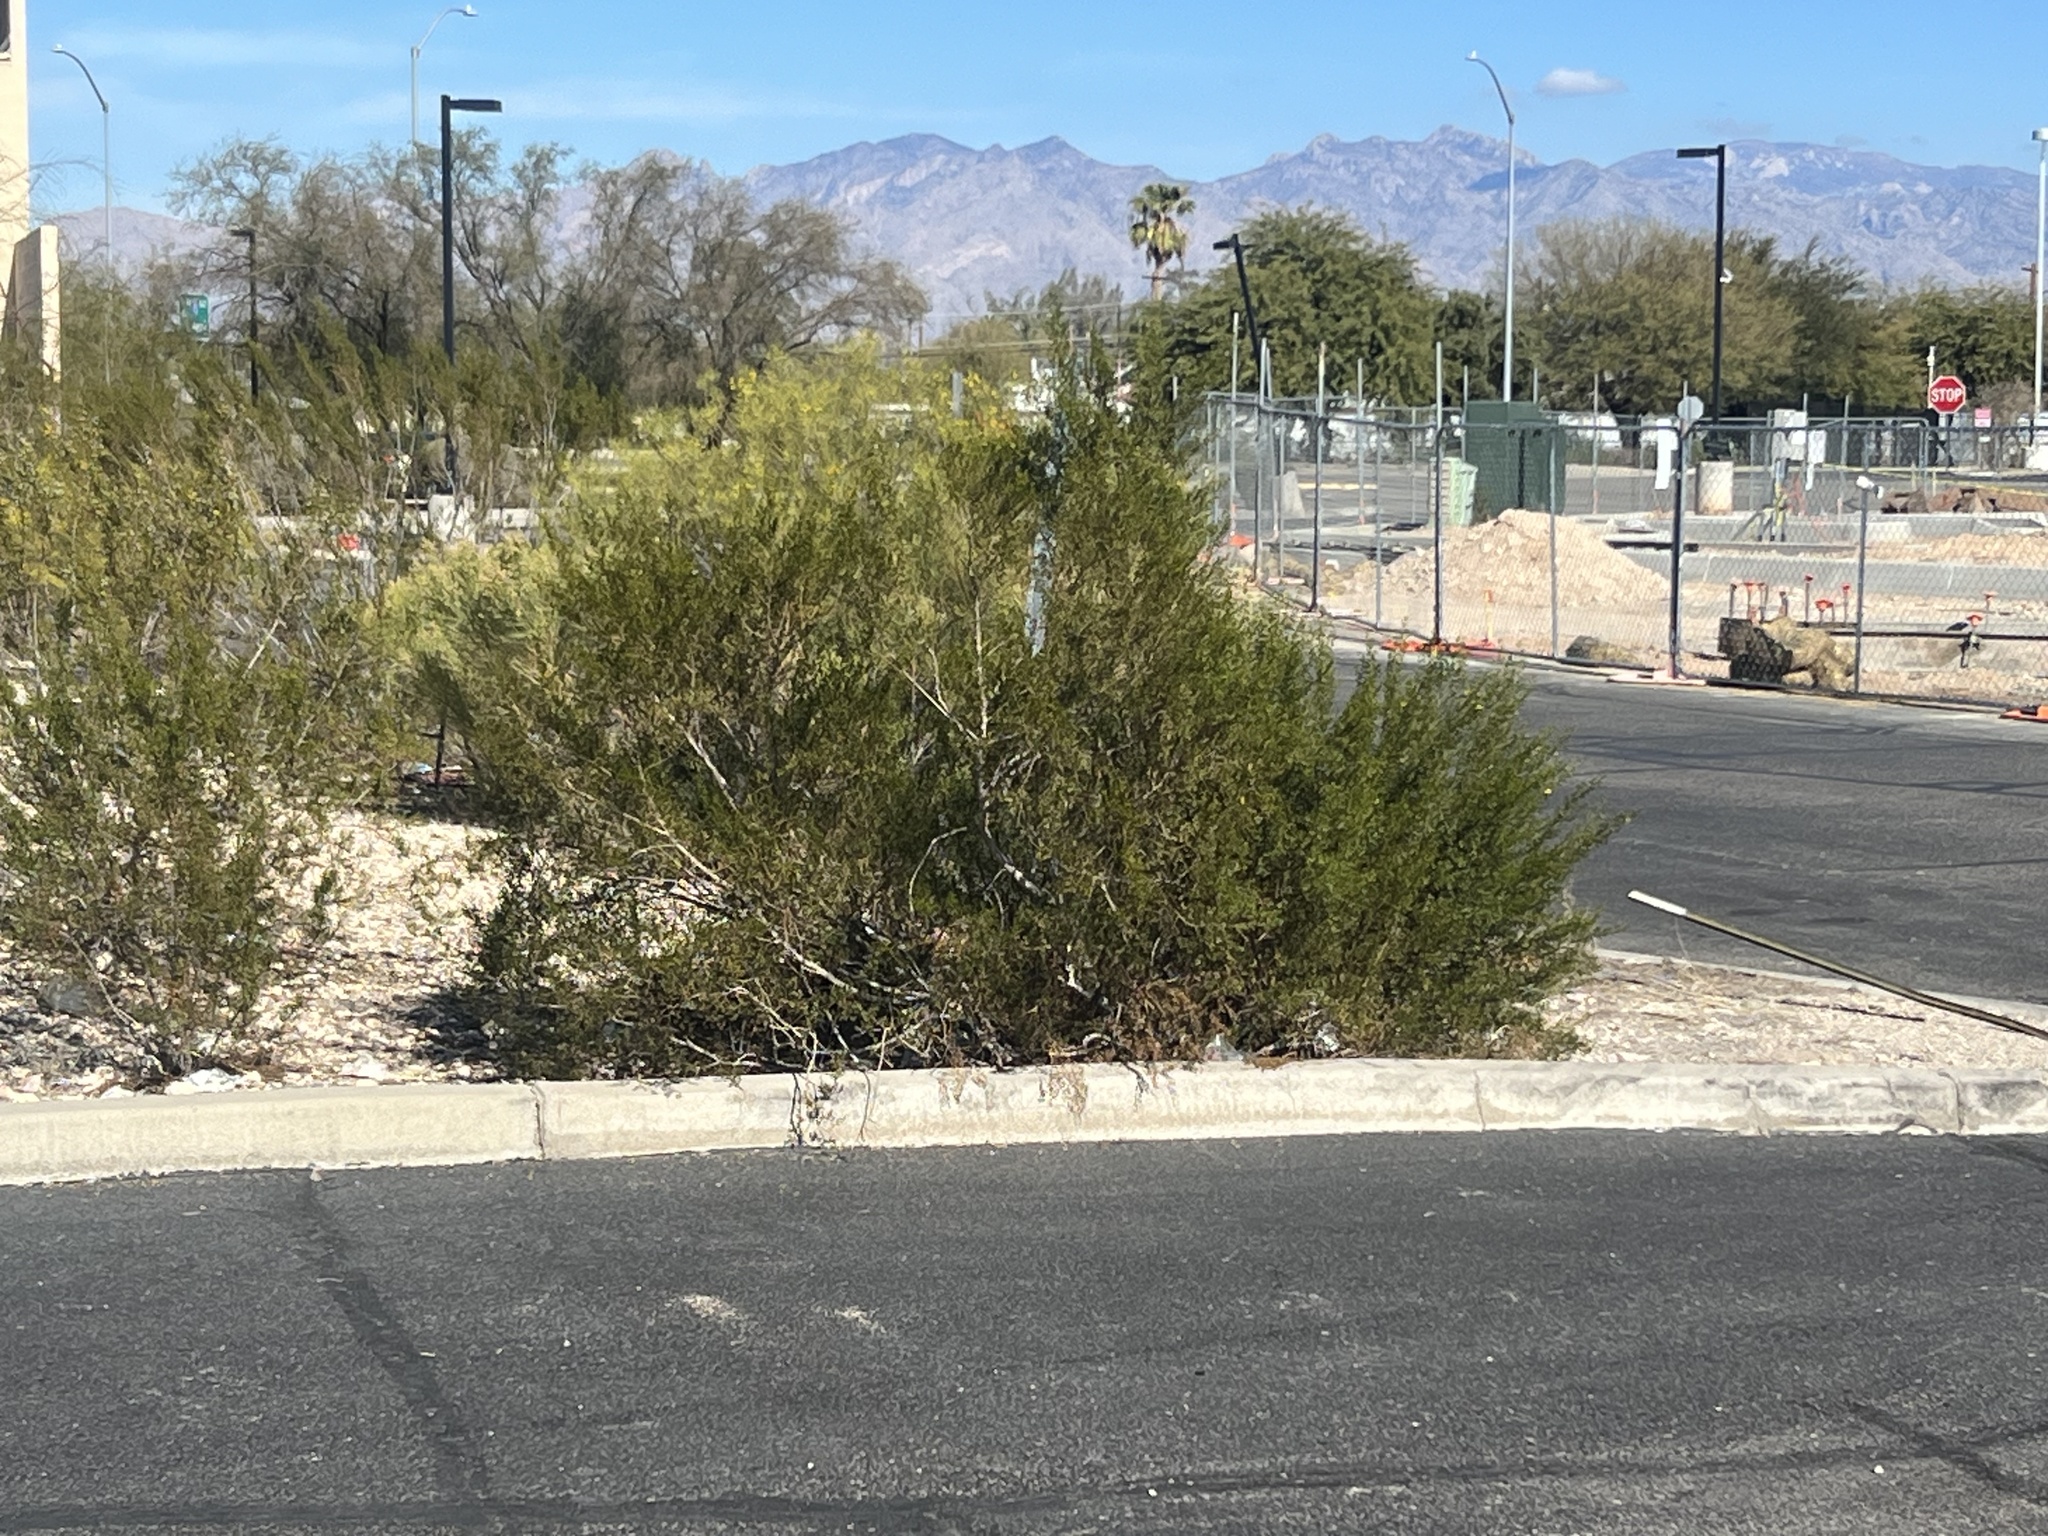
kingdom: Plantae
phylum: Tracheophyta
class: Magnoliopsida
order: Zygophyllales
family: Zygophyllaceae
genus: Larrea
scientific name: Larrea tridentata
